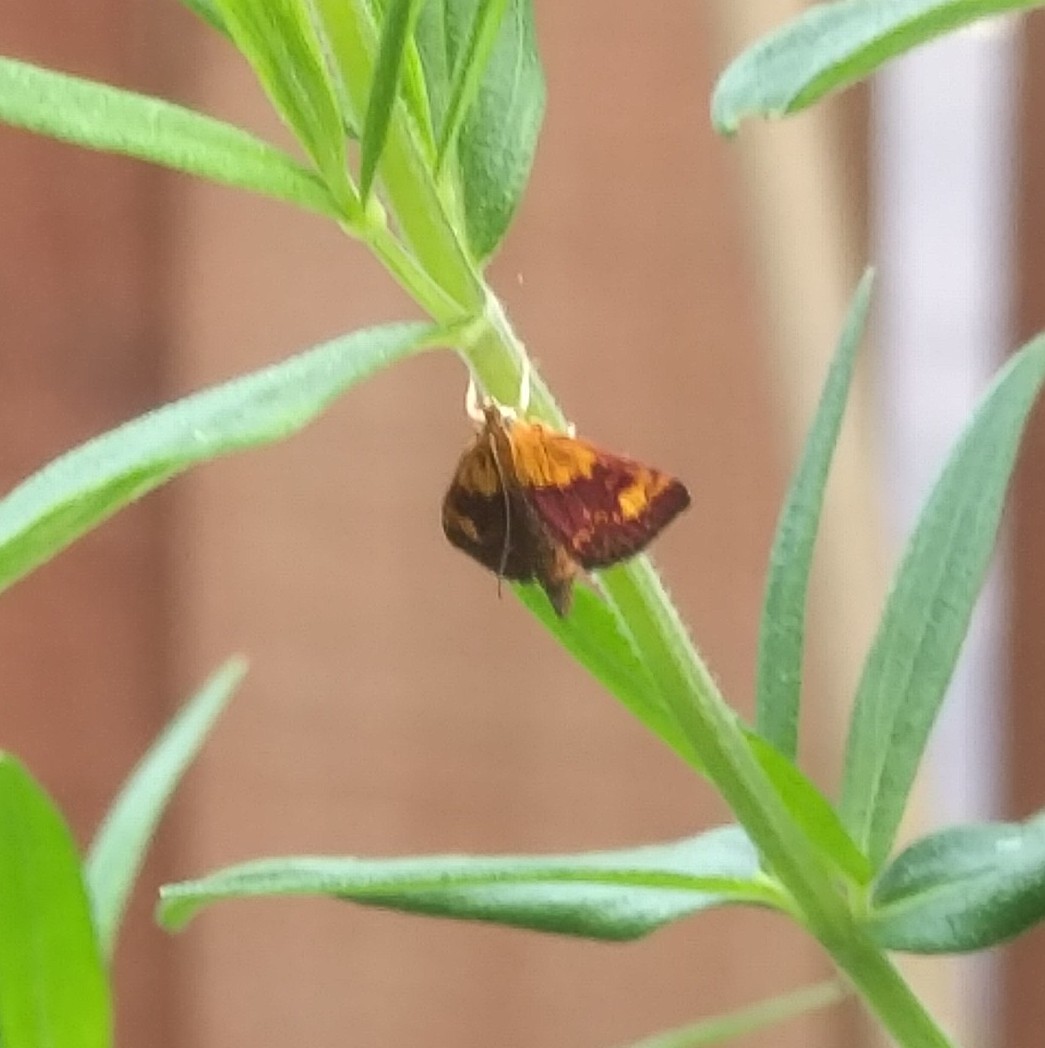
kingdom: Animalia
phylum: Arthropoda
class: Insecta
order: Lepidoptera
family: Crambidae
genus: Pyrausta
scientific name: Pyrausta orphisalis
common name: Orange mint moth
